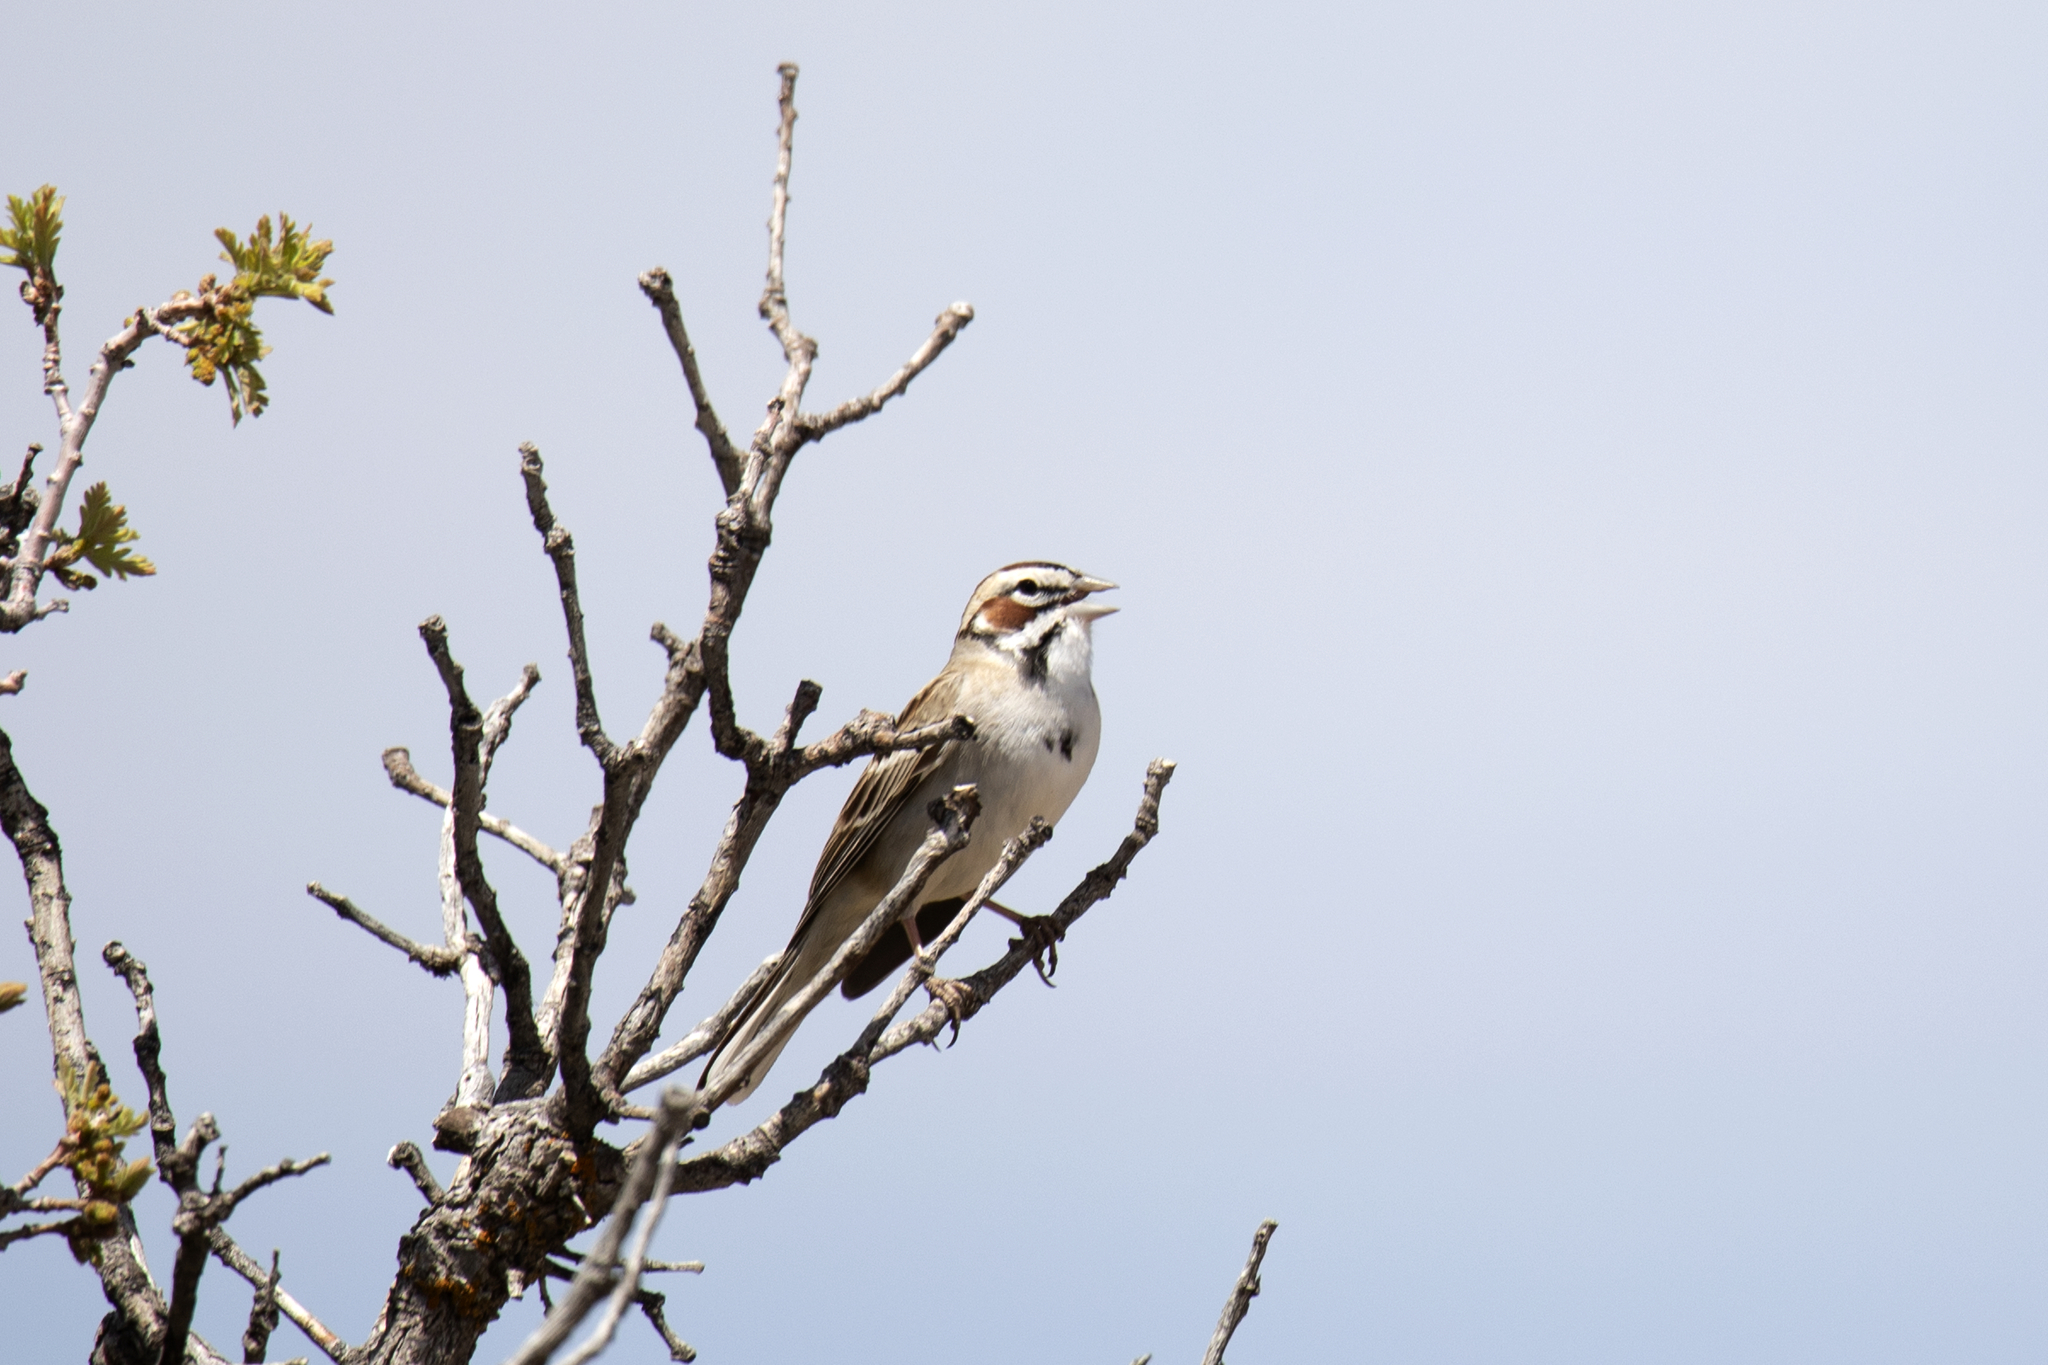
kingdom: Animalia
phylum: Chordata
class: Aves
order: Passeriformes
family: Passerellidae
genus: Chondestes
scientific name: Chondestes grammacus
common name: Lark sparrow
